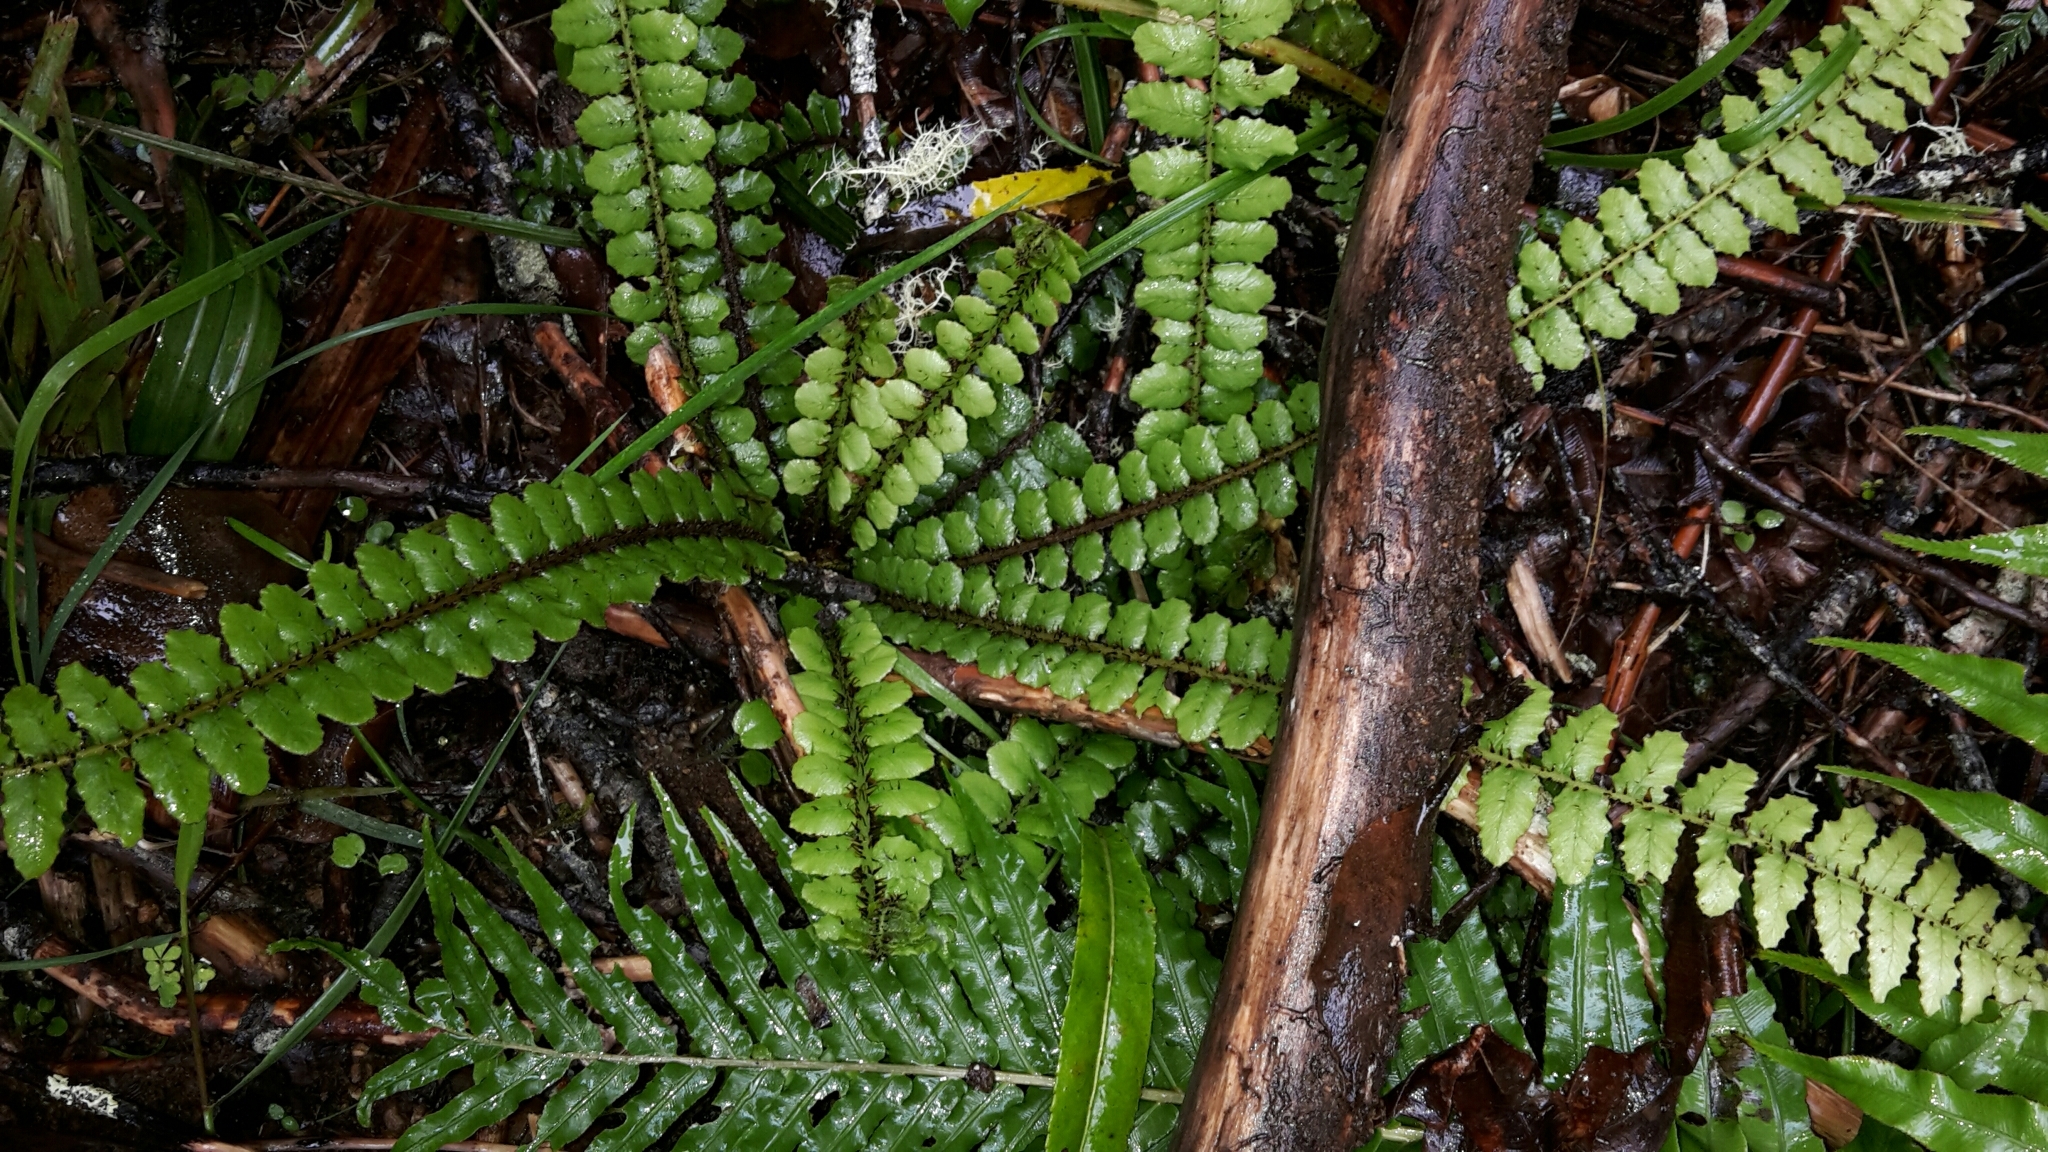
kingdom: Plantae
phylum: Tracheophyta
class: Polypodiopsida
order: Polypodiales
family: Blechnaceae
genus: Cranfillia
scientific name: Cranfillia fluviatilis
